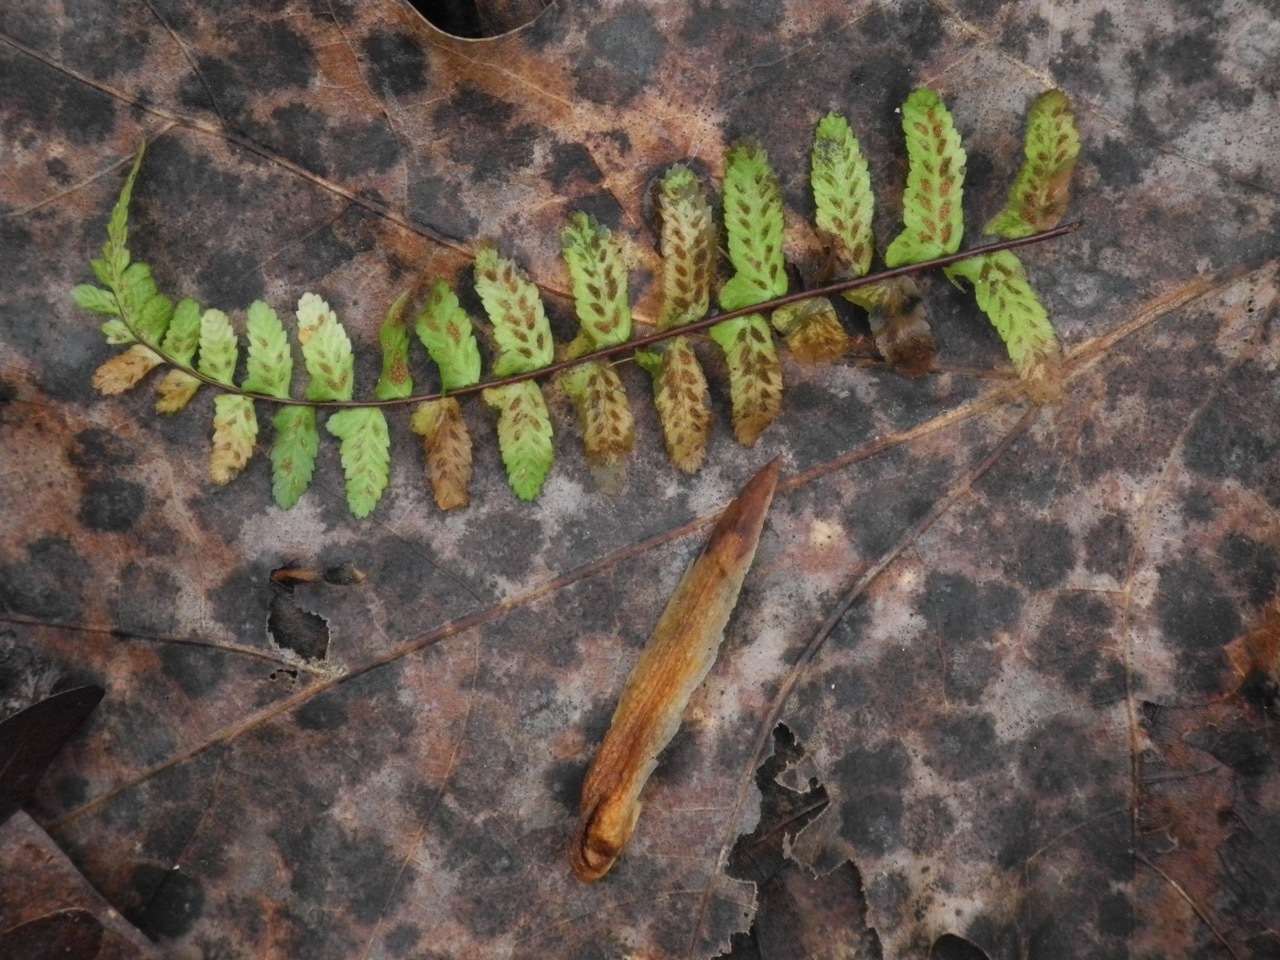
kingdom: Plantae
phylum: Tracheophyta
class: Polypodiopsida
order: Polypodiales
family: Aspleniaceae
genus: Asplenium
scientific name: Asplenium platyneuron
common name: Ebony spleenwort
